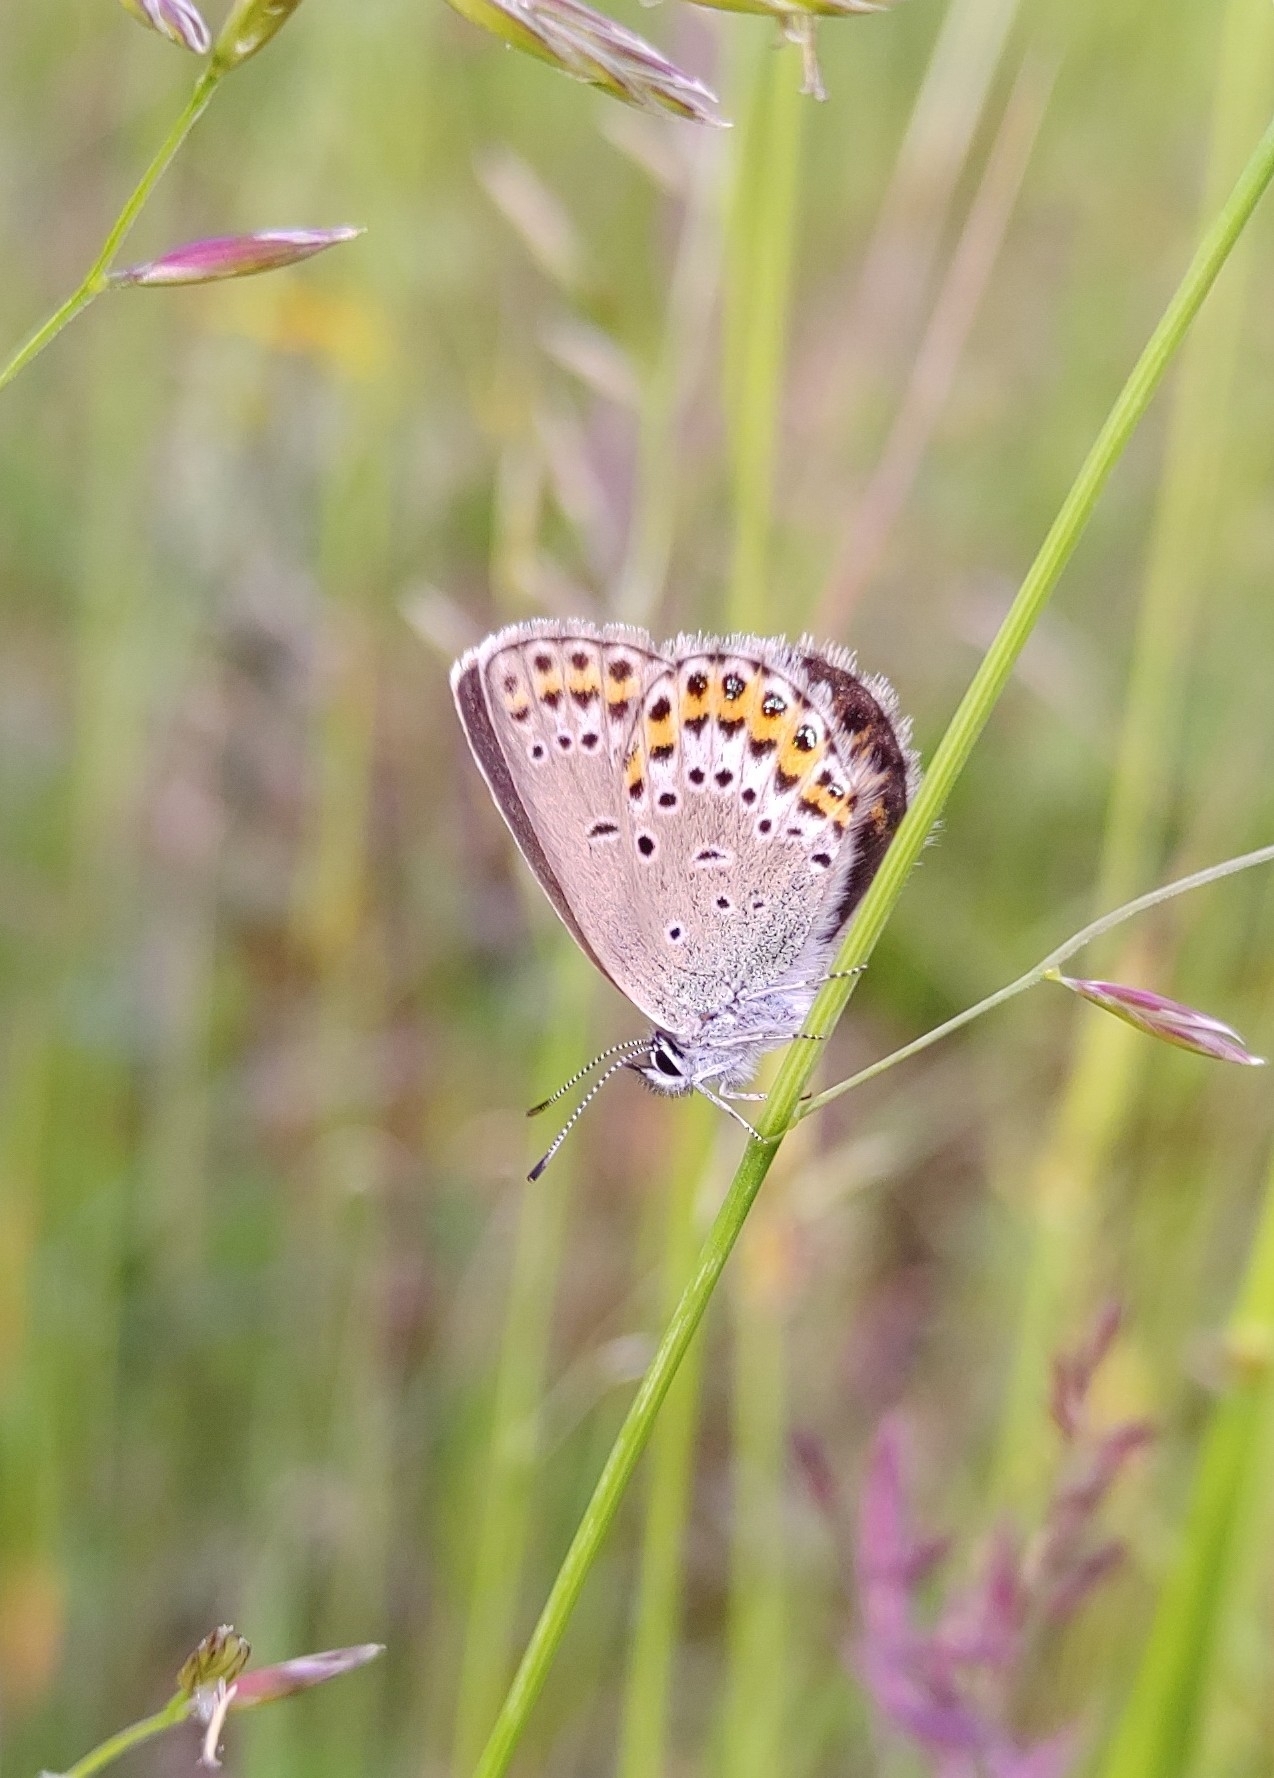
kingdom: Animalia
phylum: Arthropoda
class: Insecta
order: Lepidoptera
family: Lycaenidae
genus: Lycaeides
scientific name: Lycaeides idas
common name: Northern blue
